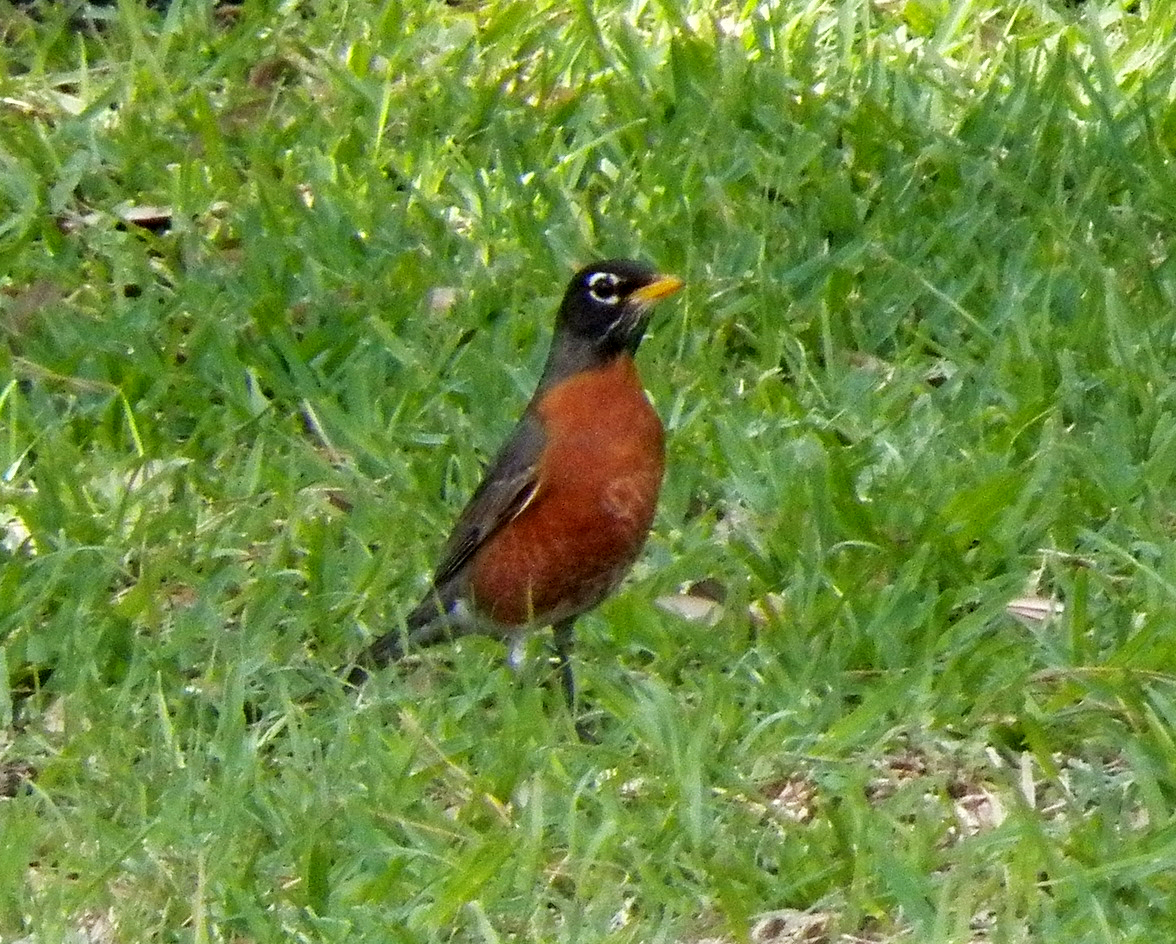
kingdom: Animalia
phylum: Chordata
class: Aves
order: Passeriformes
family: Turdidae
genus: Turdus
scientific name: Turdus migratorius
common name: American robin
